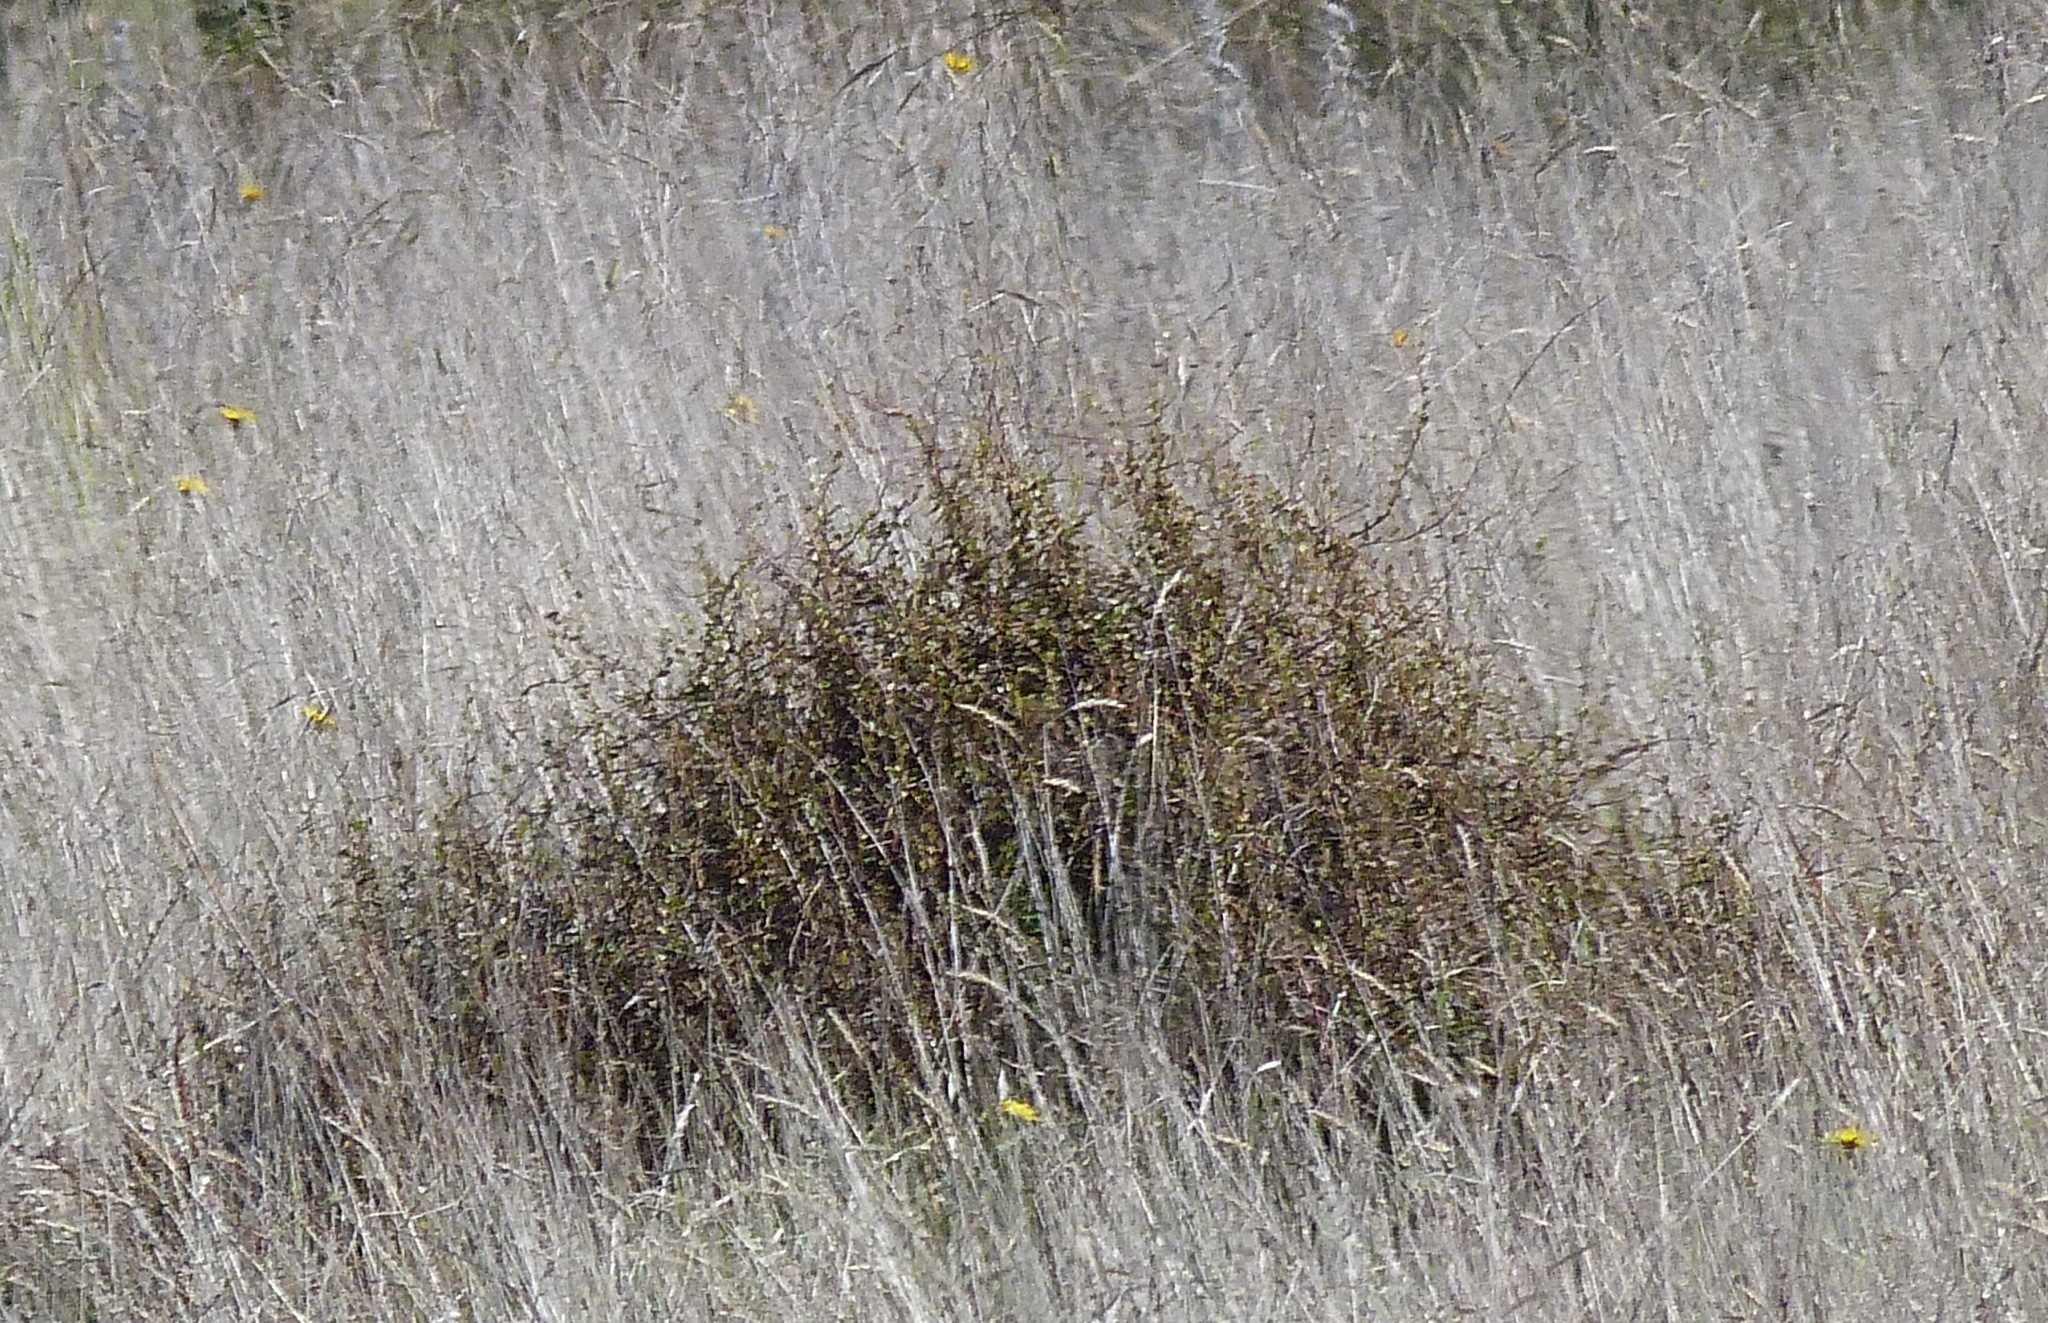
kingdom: Plantae
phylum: Tracheophyta
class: Magnoliopsida
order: Caryophyllales
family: Polygonaceae
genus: Muehlenbeckia
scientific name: Muehlenbeckia complexa
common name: Wireplant
